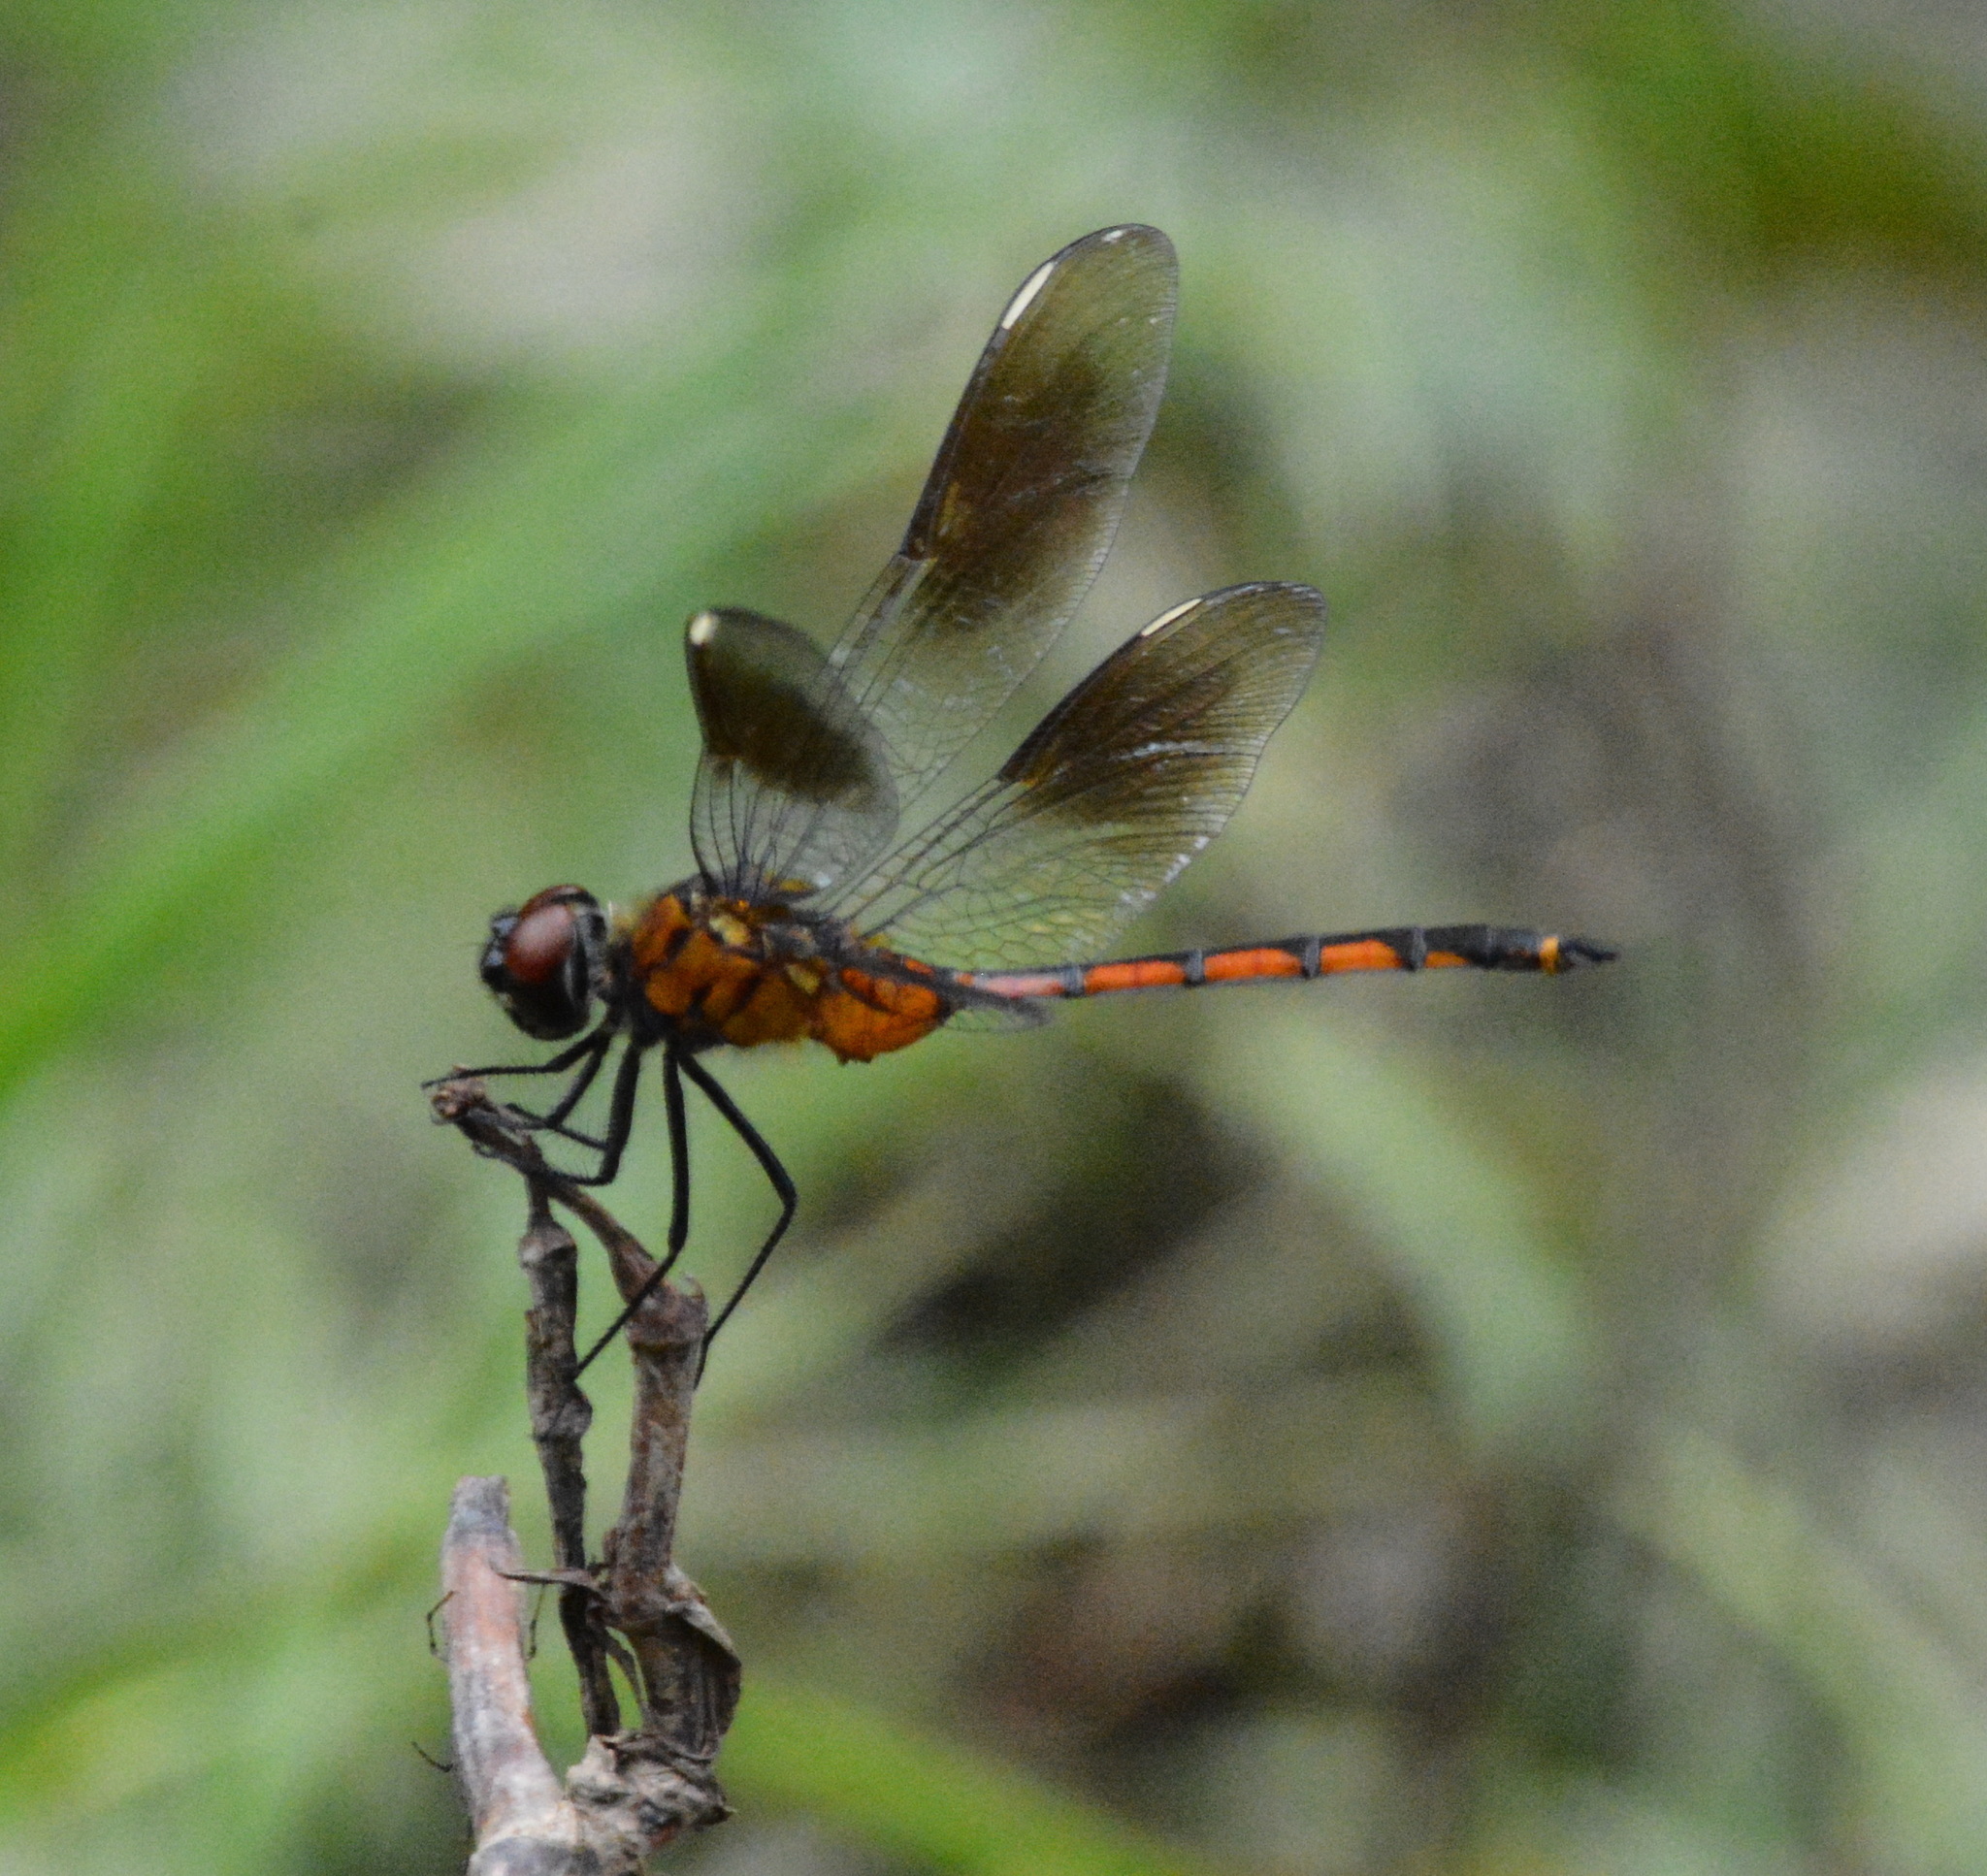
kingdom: Animalia
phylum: Arthropoda
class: Insecta
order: Odonata
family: Libellulidae
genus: Brachymesia
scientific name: Brachymesia gravida
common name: Four-spotted pennant
